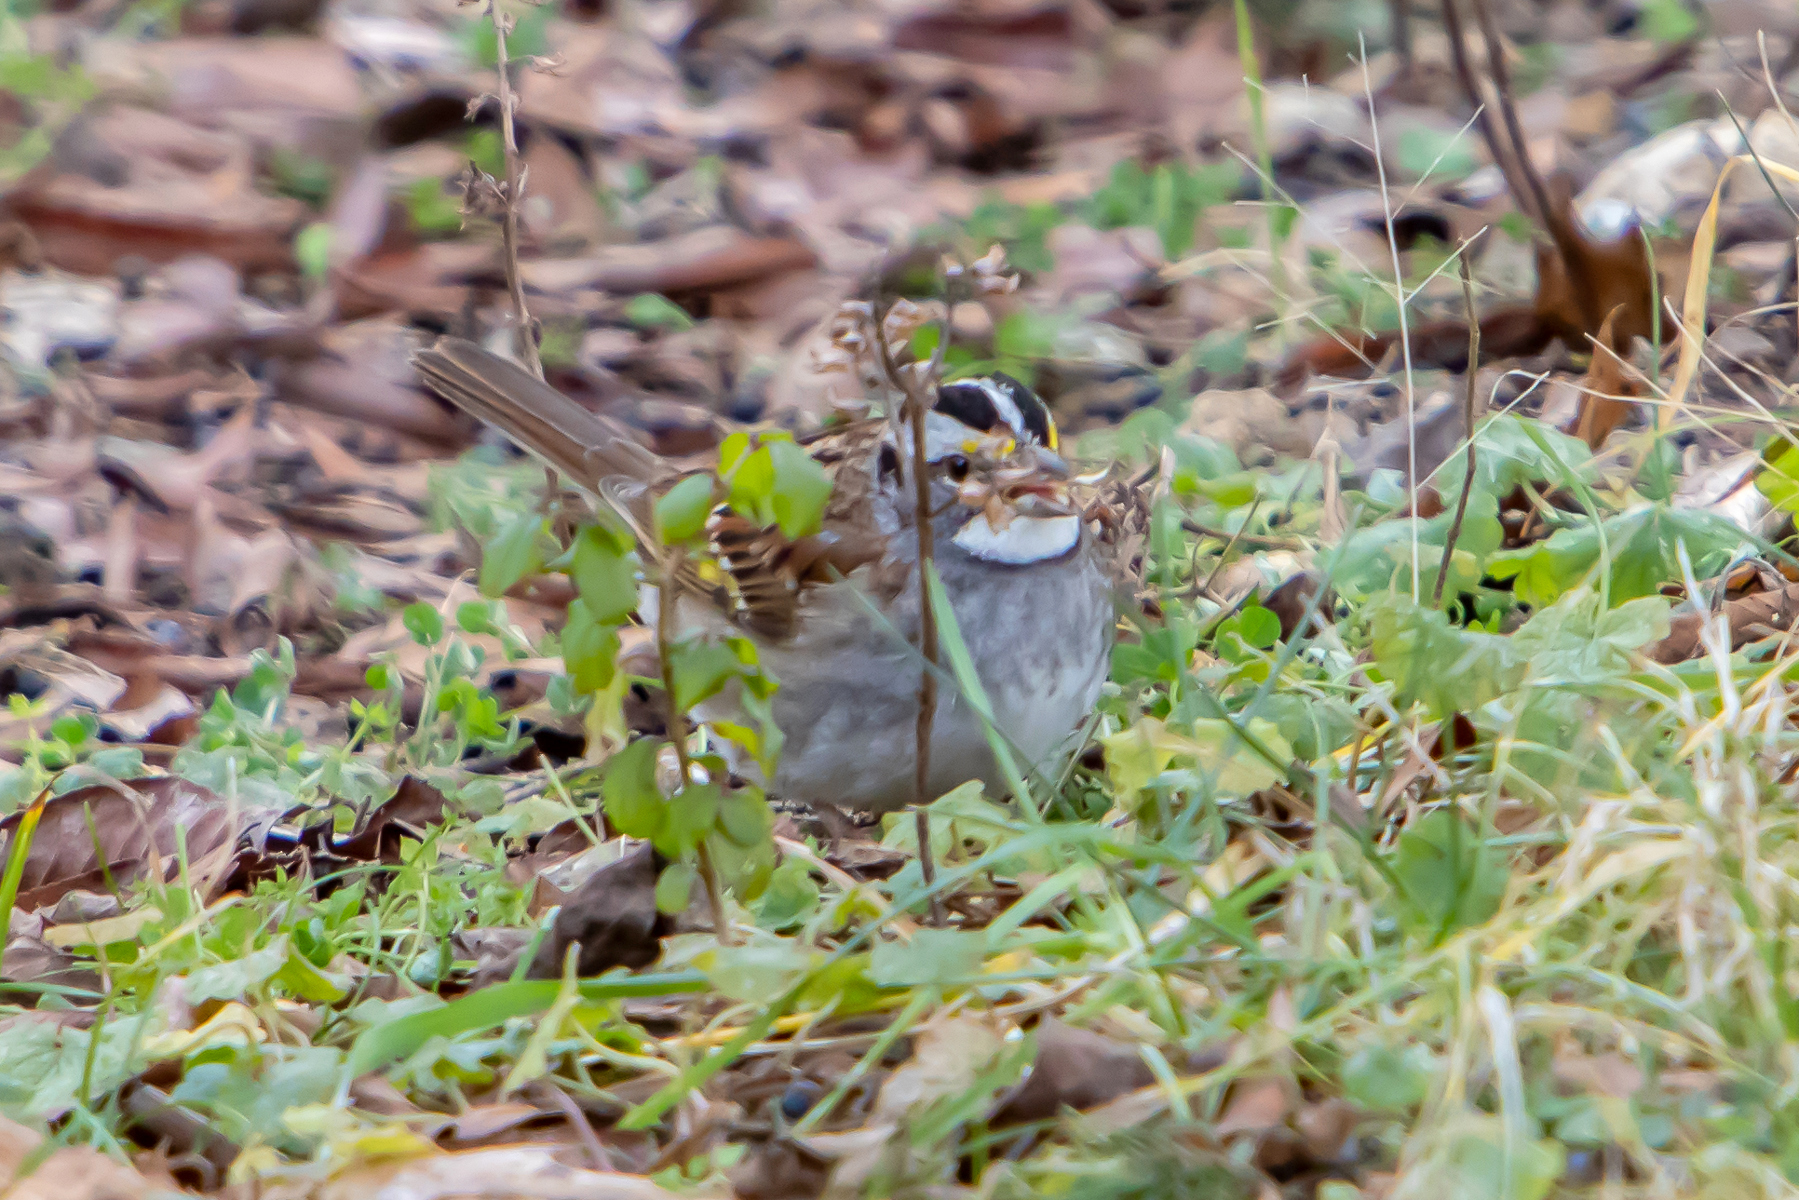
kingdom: Animalia
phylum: Chordata
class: Aves
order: Passeriformes
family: Passerellidae
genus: Zonotrichia
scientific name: Zonotrichia albicollis
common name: White-throated sparrow
